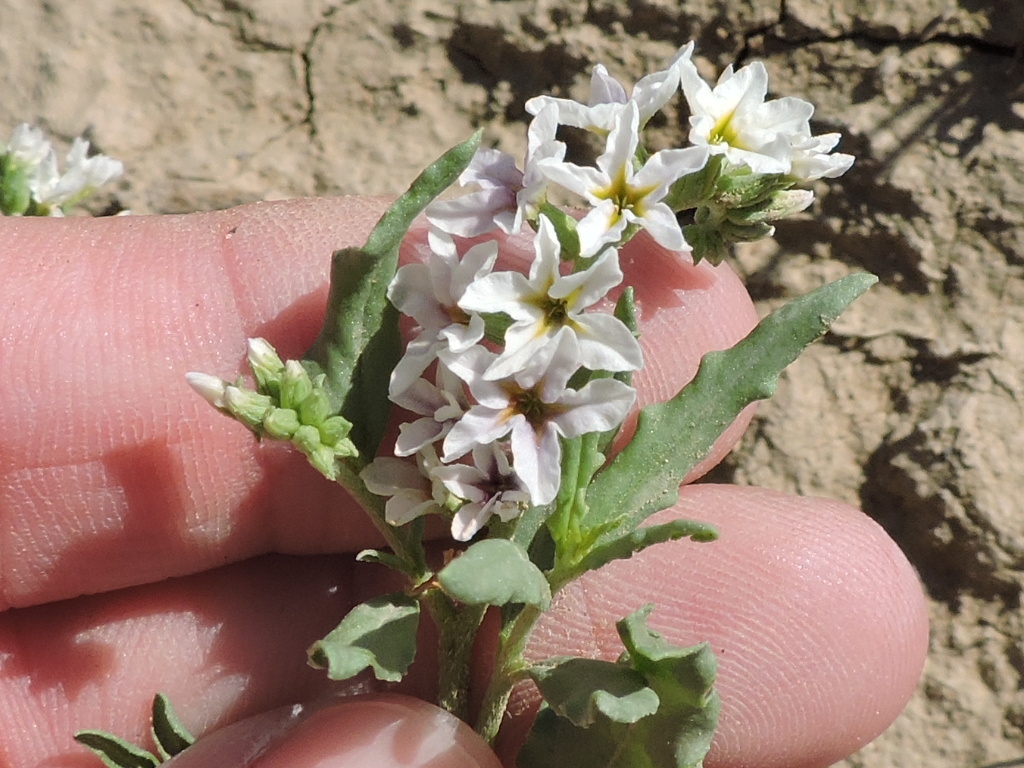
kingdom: Plantae
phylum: Tracheophyta
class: Magnoliopsida
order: Boraginales
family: Heliotropiaceae
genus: Heliotropium
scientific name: Heliotropium glabriusculum
